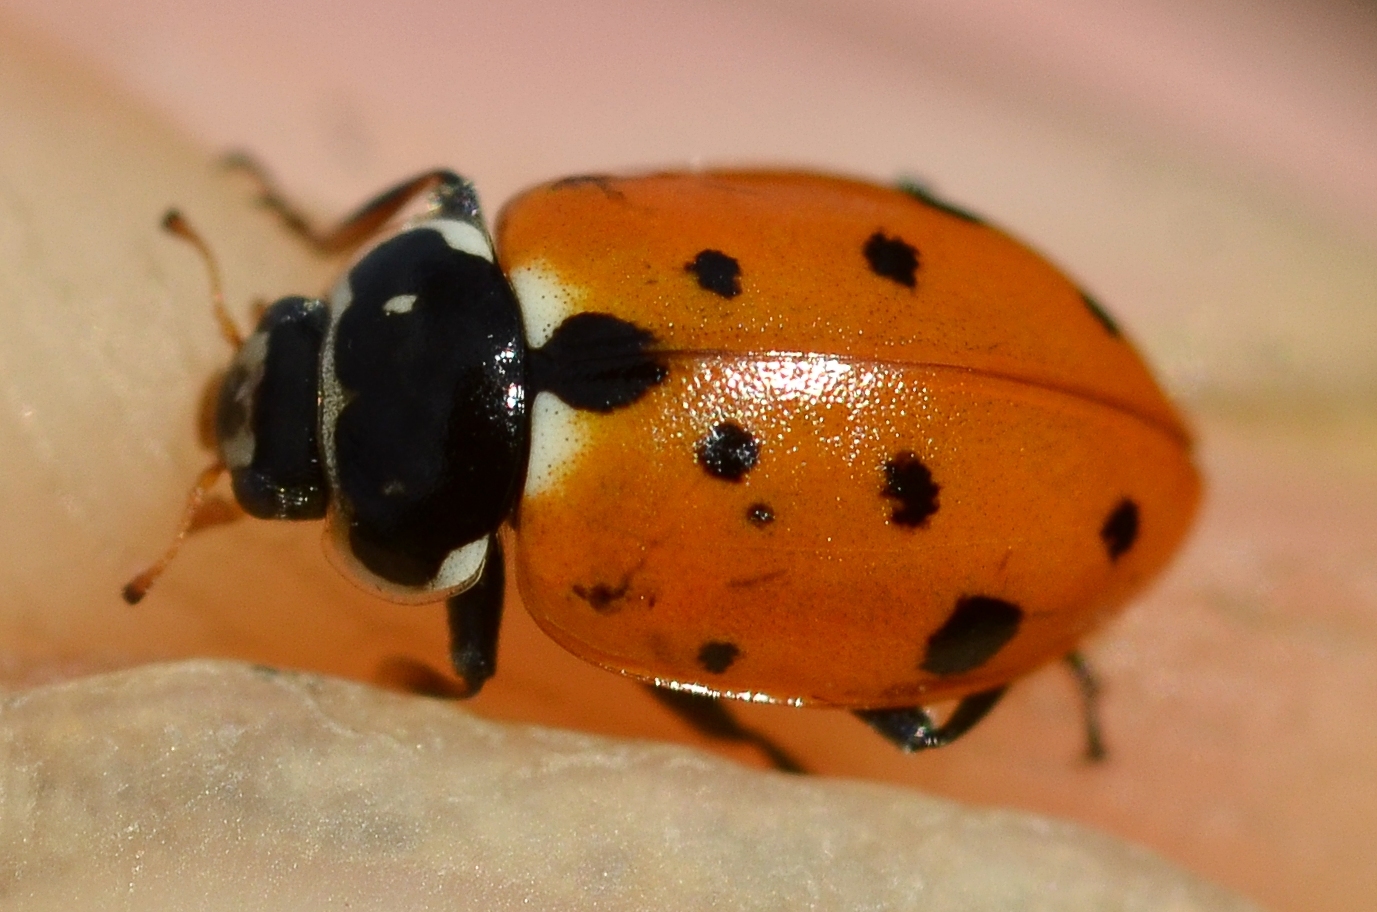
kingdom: Animalia
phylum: Arthropoda
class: Insecta
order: Coleoptera
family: Coccinellidae
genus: Hippodamia
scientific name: Hippodamia variegata
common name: Ladybird beetle
